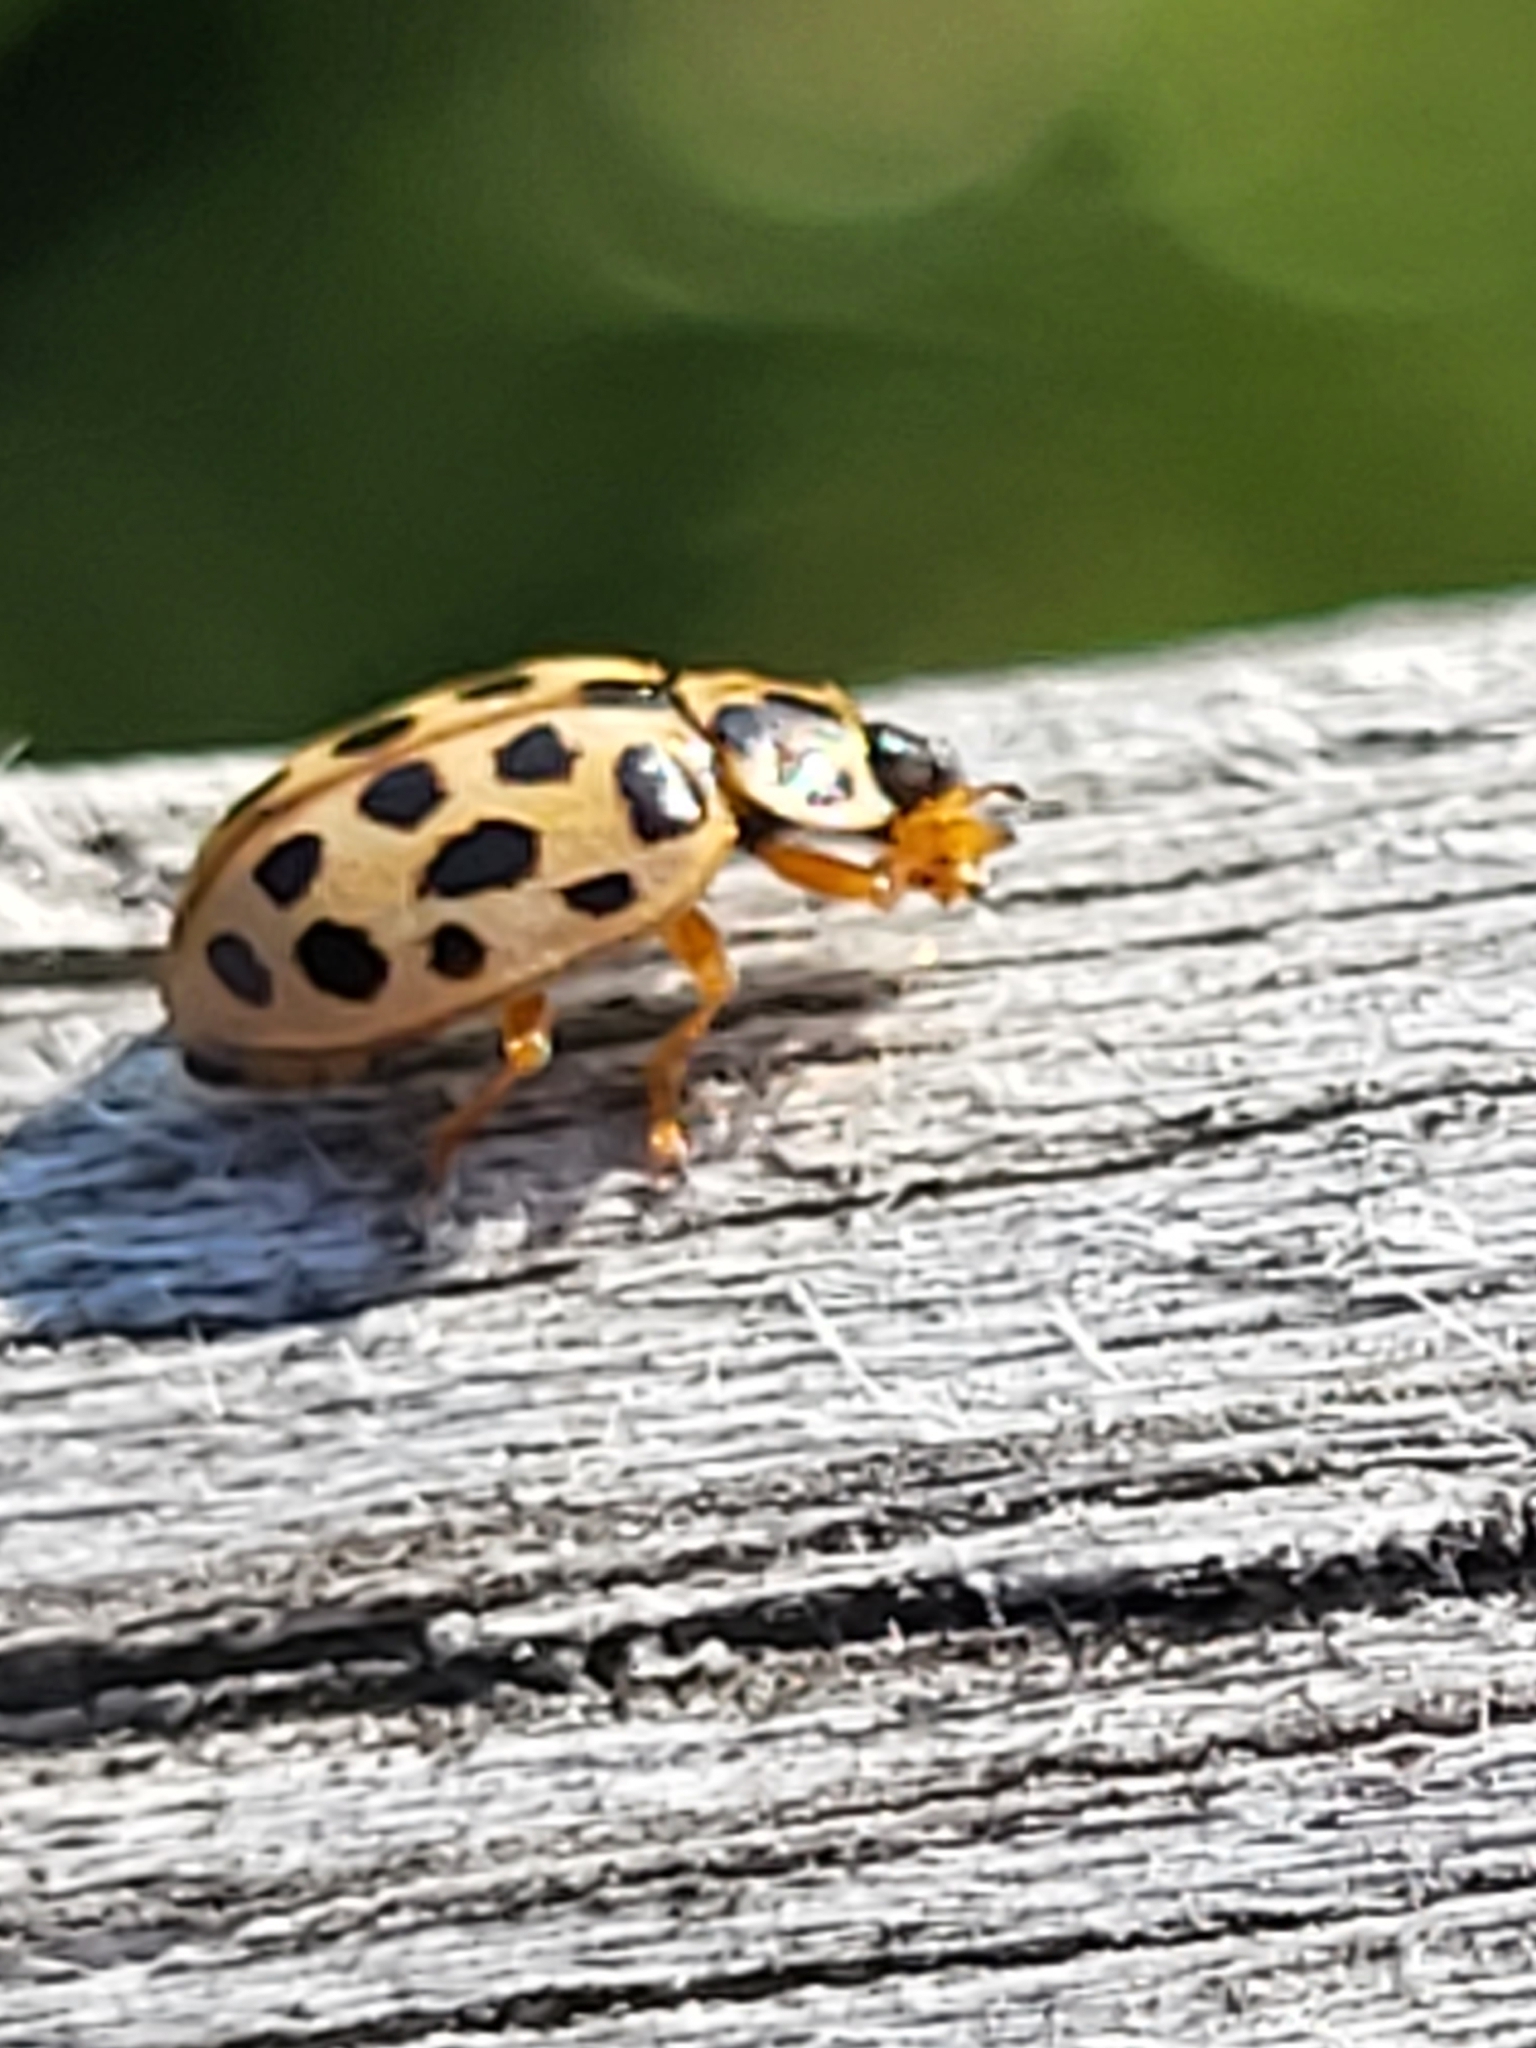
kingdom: Animalia
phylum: Arthropoda
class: Insecta
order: Coleoptera
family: Coccinellidae
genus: Anisosticta
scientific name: Anisosticta novemdecimpunctata
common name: Water ladybird
